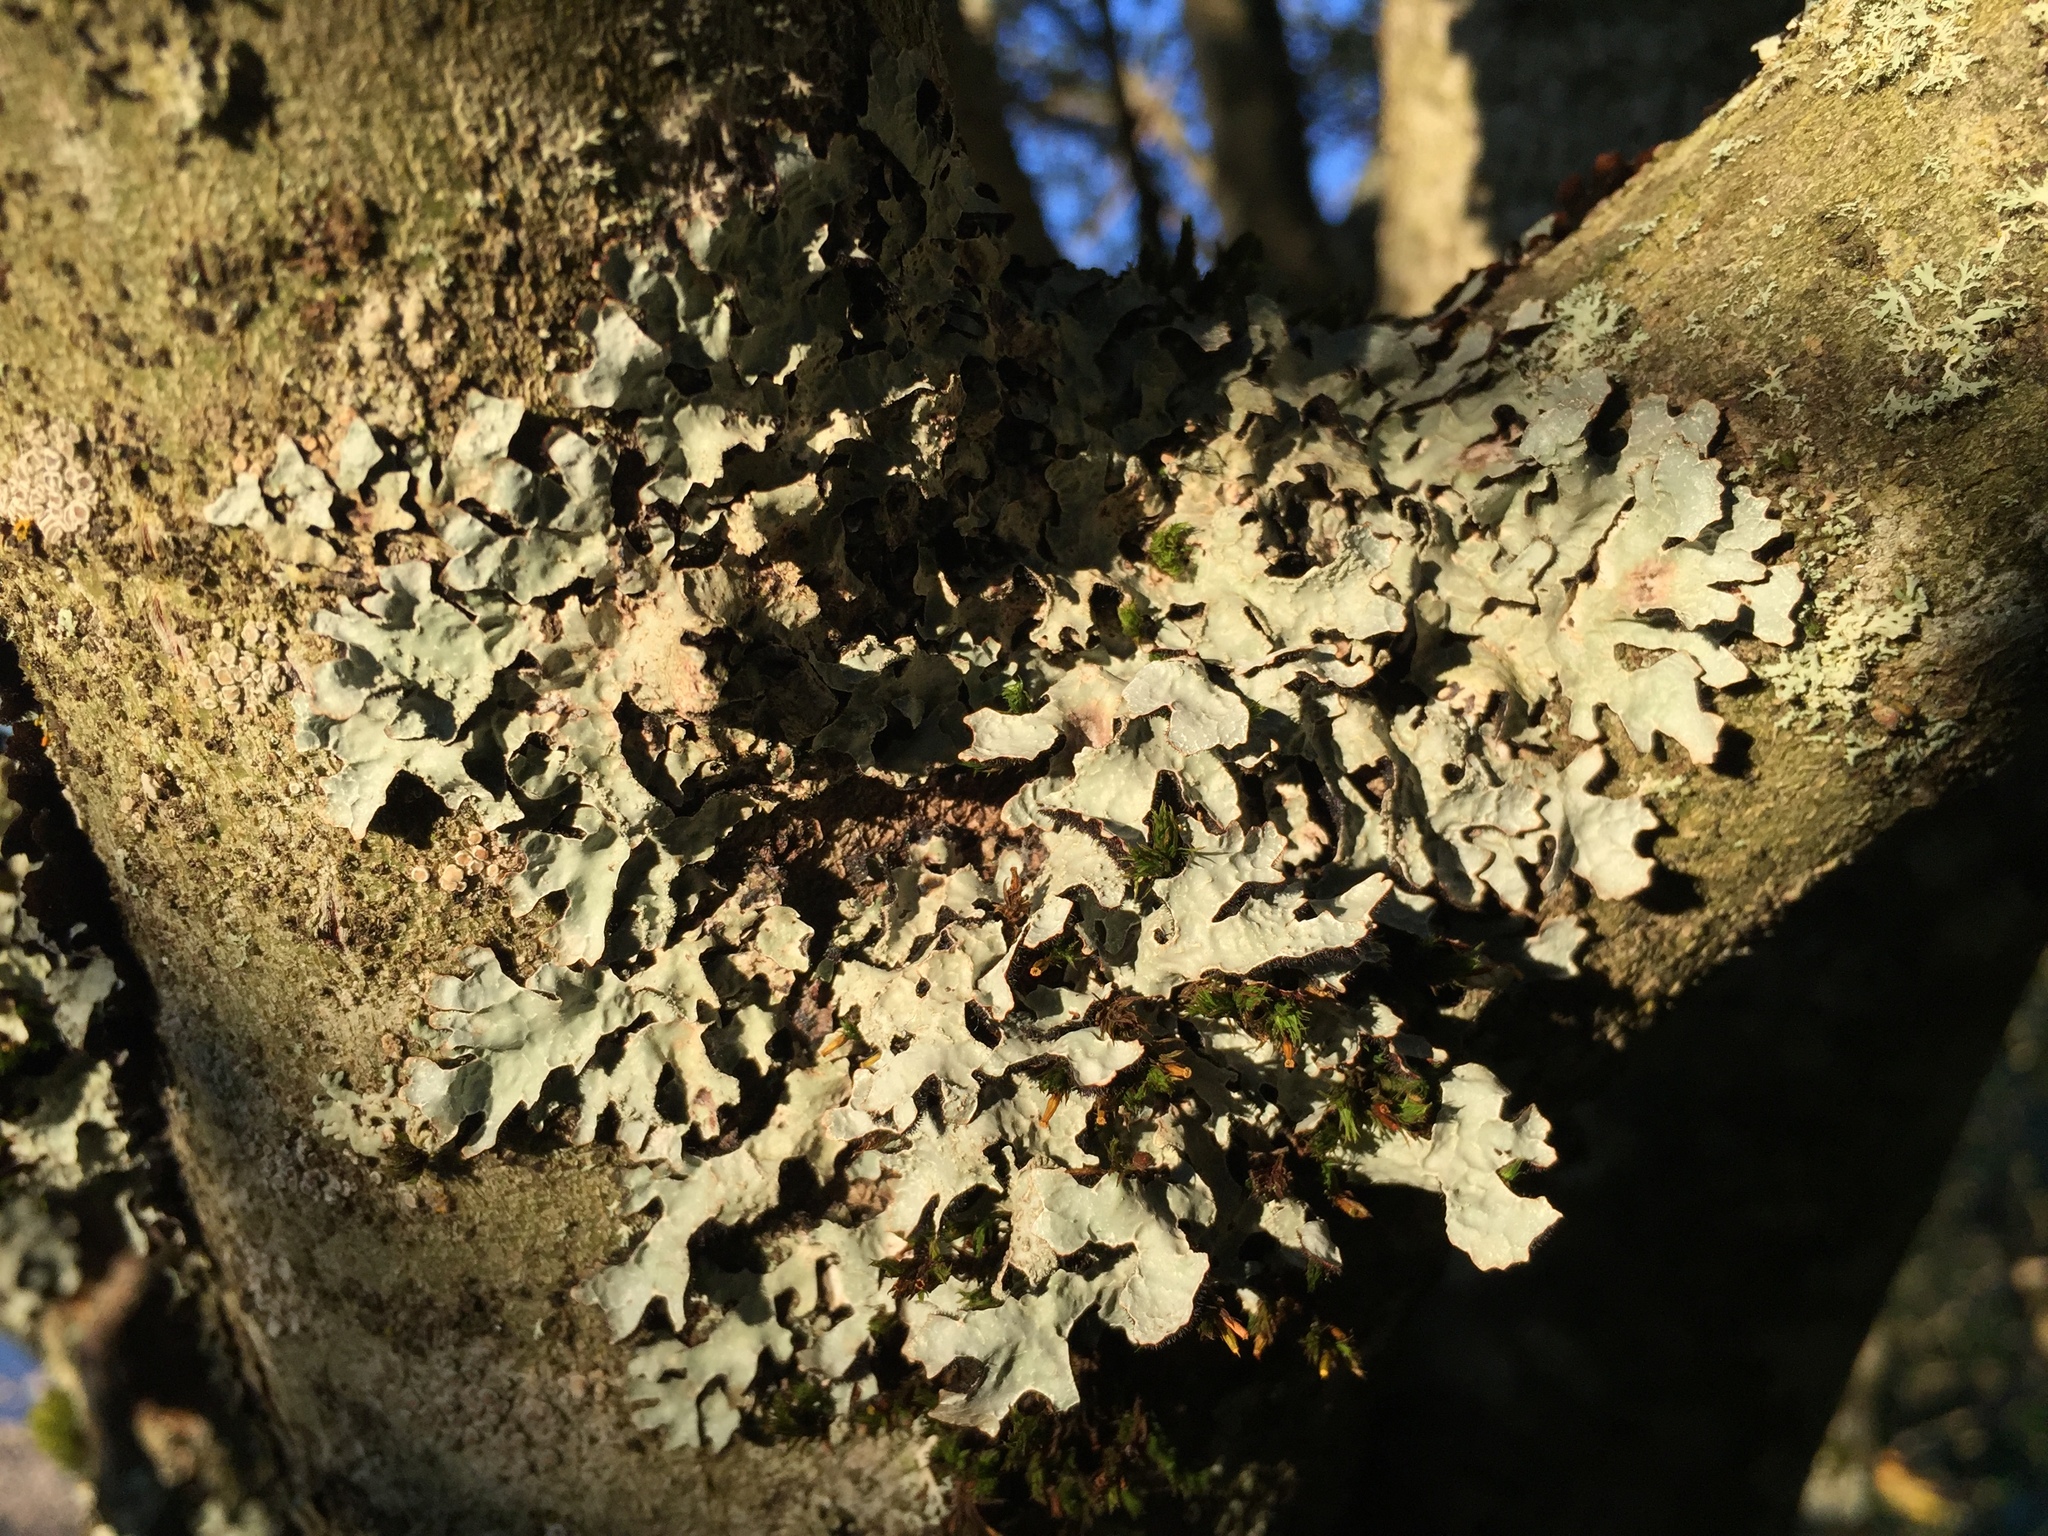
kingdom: Fungi
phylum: Ascomycota
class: Lecanoromycetes
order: Lecanorales
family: Parmeliaceae
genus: Parmelia
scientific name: Parmelia sulcata
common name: Netted shield lichen
